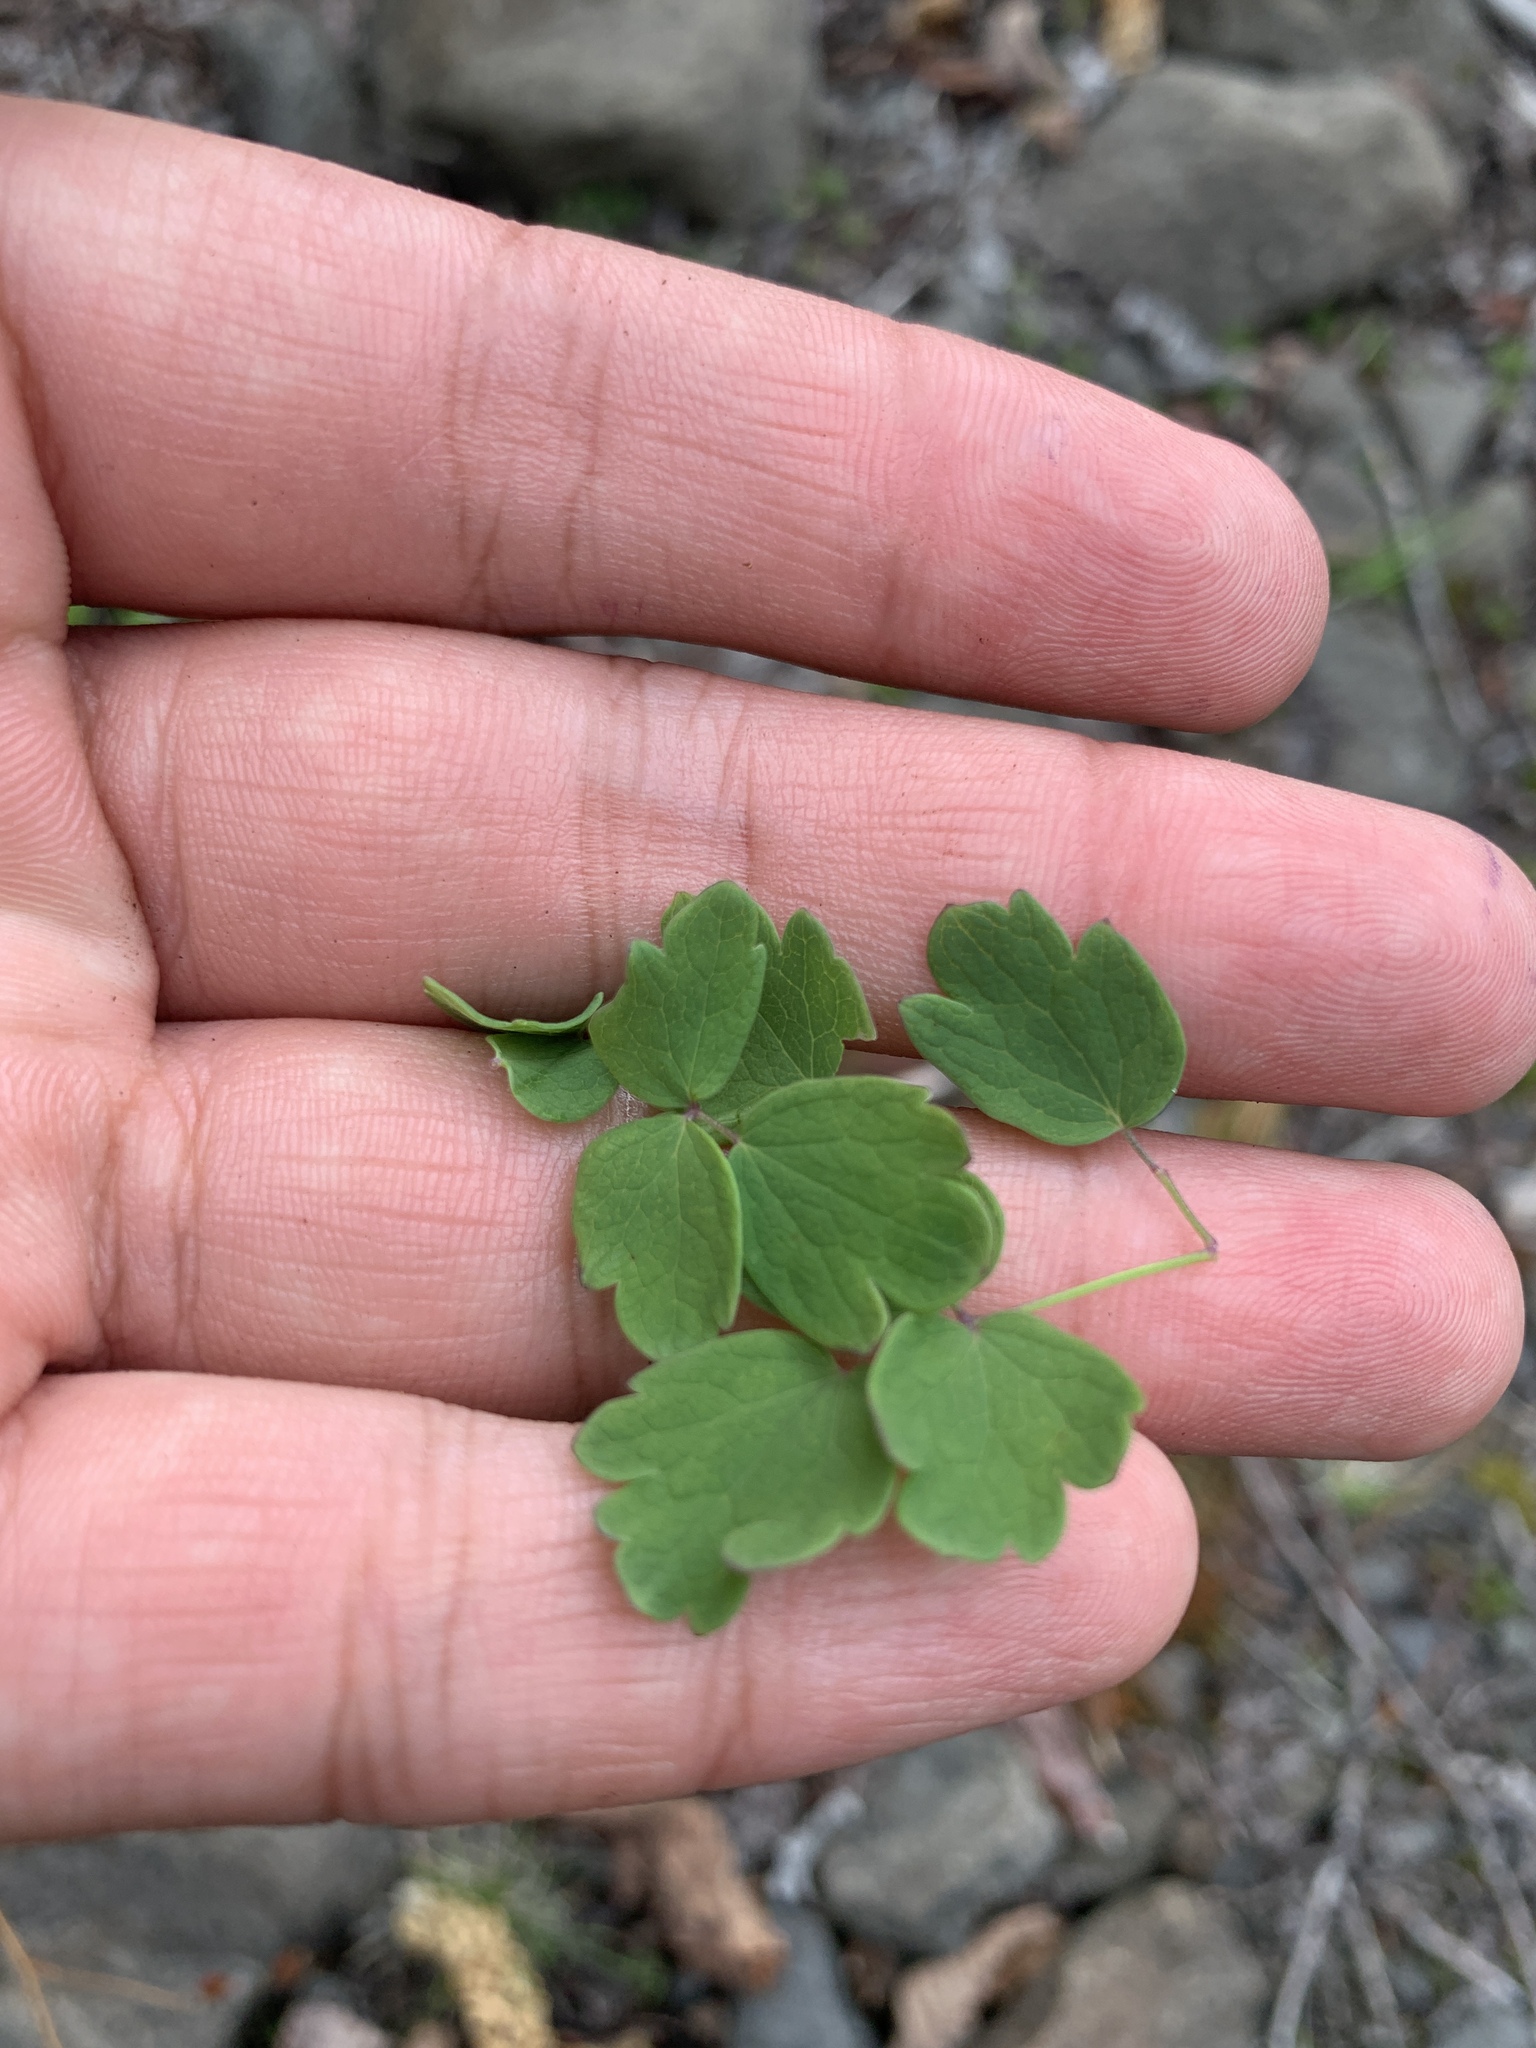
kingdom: Plantae
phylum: Tracheophyta
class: Magnoliopsida
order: Ranunculales
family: Ranunculaceae
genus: Thalictrum
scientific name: Thalictrum minus
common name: Lesser meadow-rue
